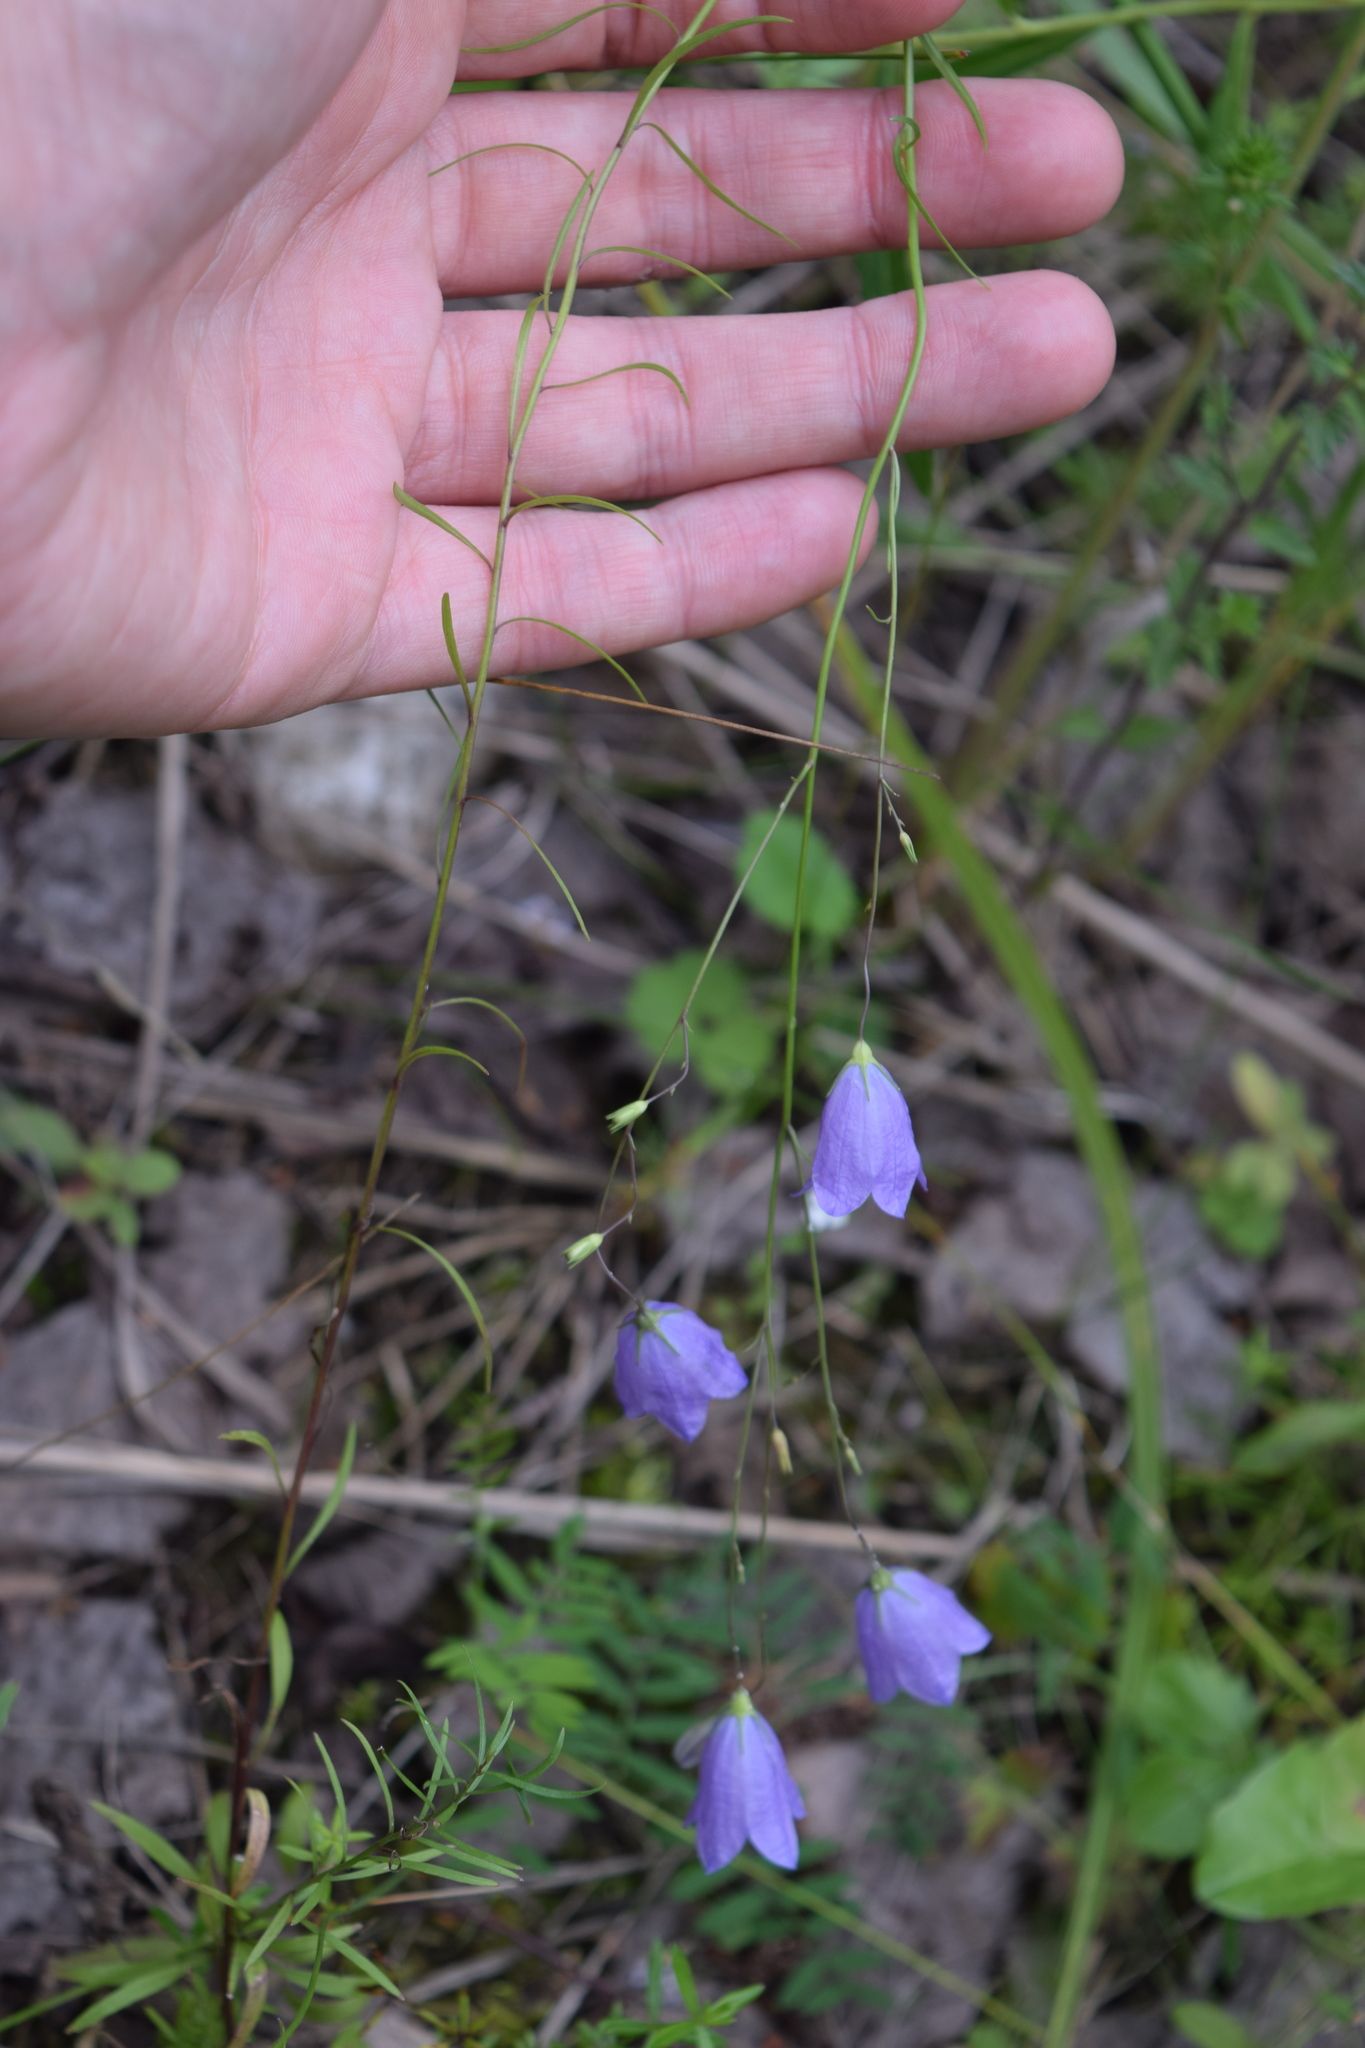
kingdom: Plantae
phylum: Tracheophyta
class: Magnoliopsida
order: Asterales
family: Campanulaceae
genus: Campanula
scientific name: Campanula rotundifolia
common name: Harebell
